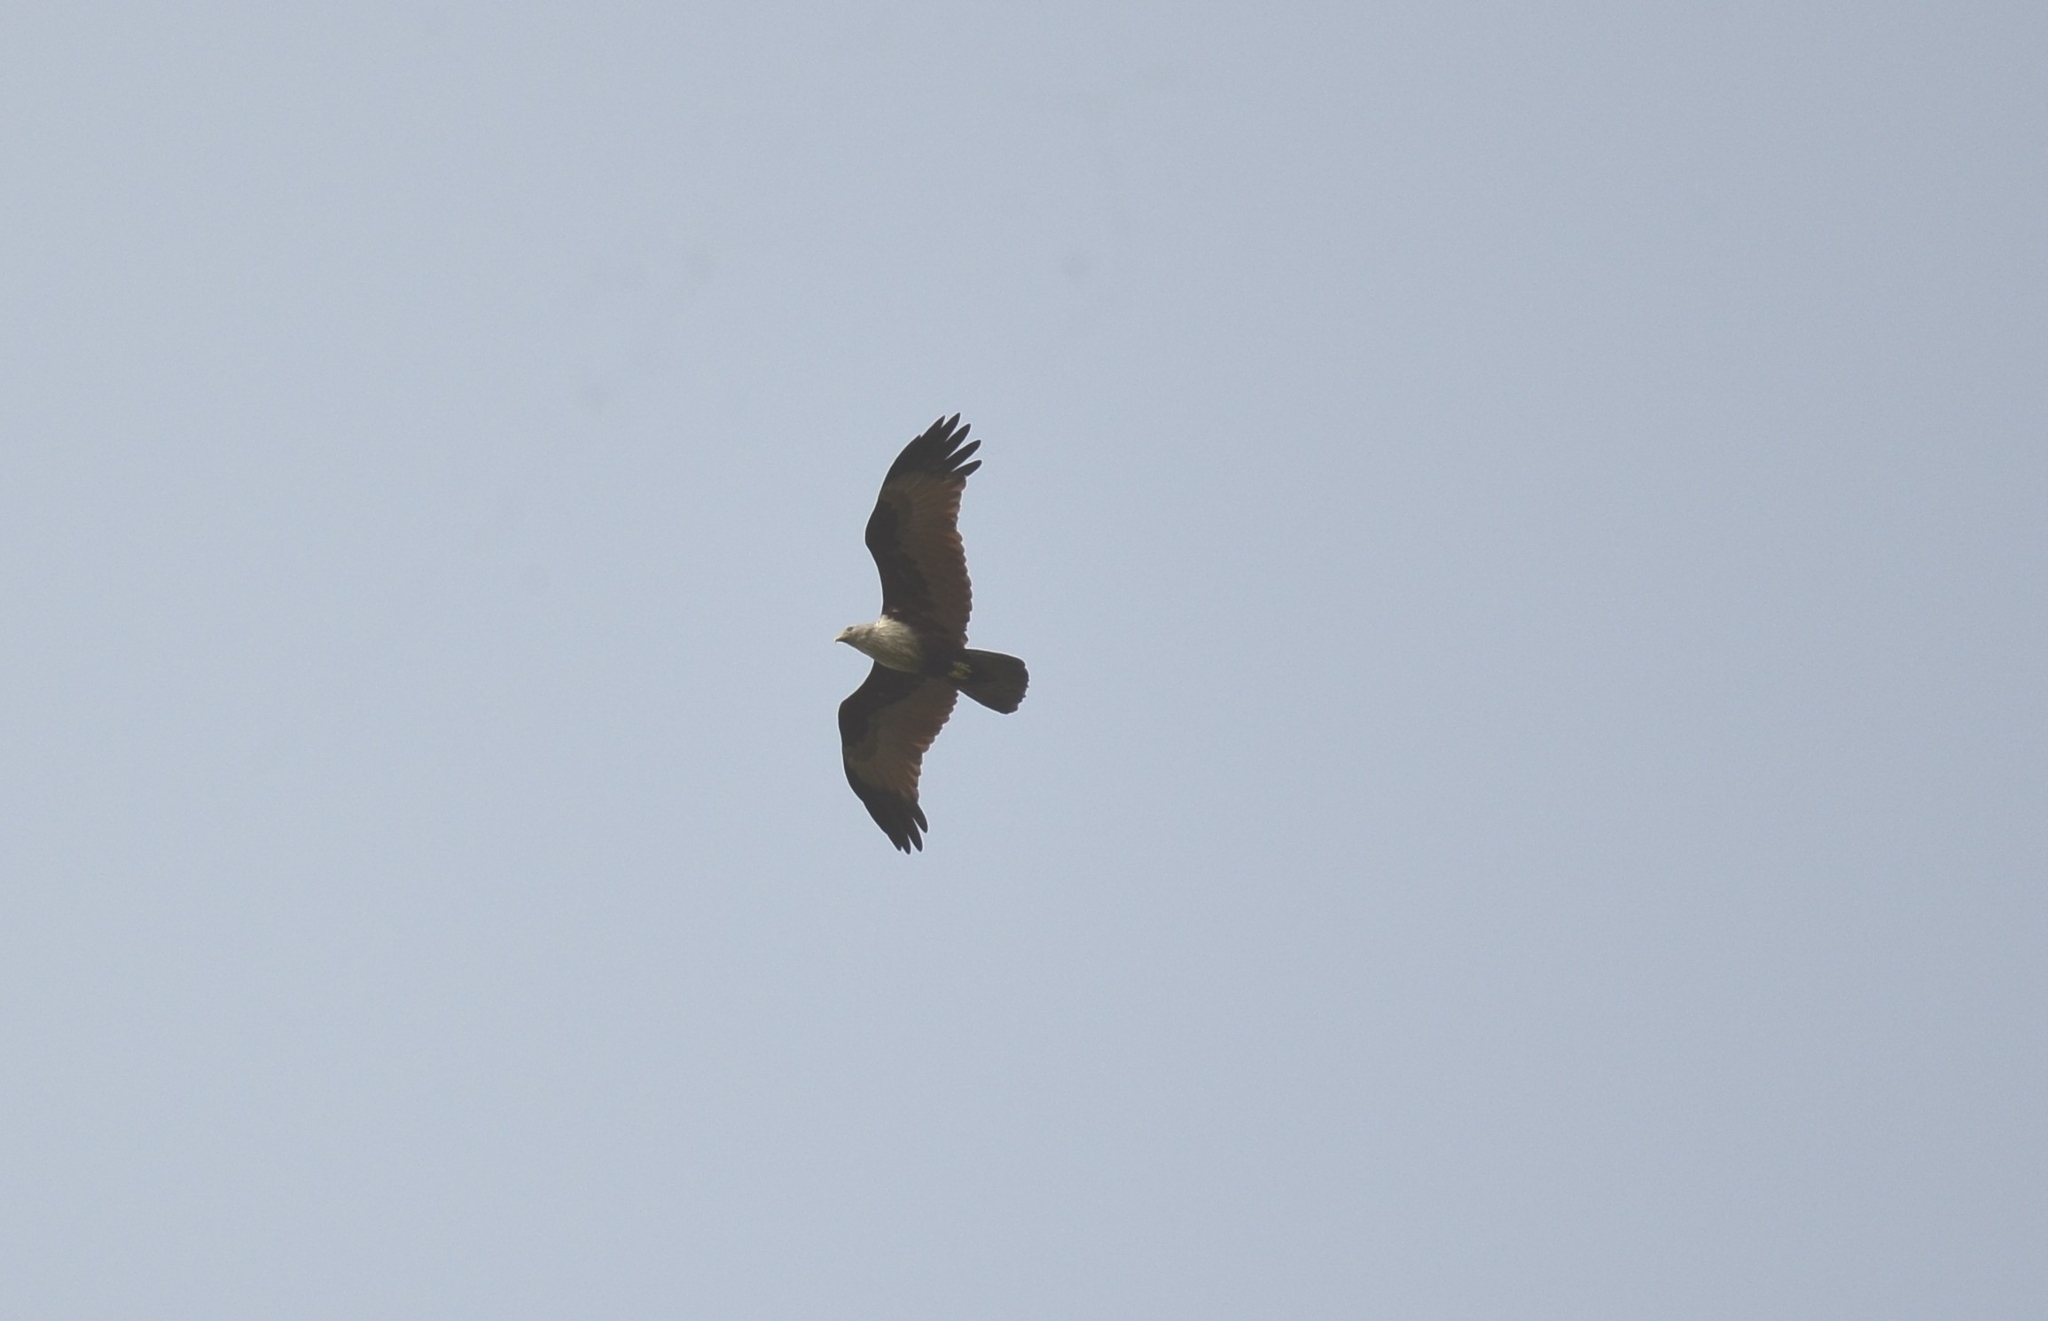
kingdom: Animalia
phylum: Chordata
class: Aves
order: Accipitriformes
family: Accipitridae
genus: Haliastur
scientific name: Haliastur indus
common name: Brahminy kite
